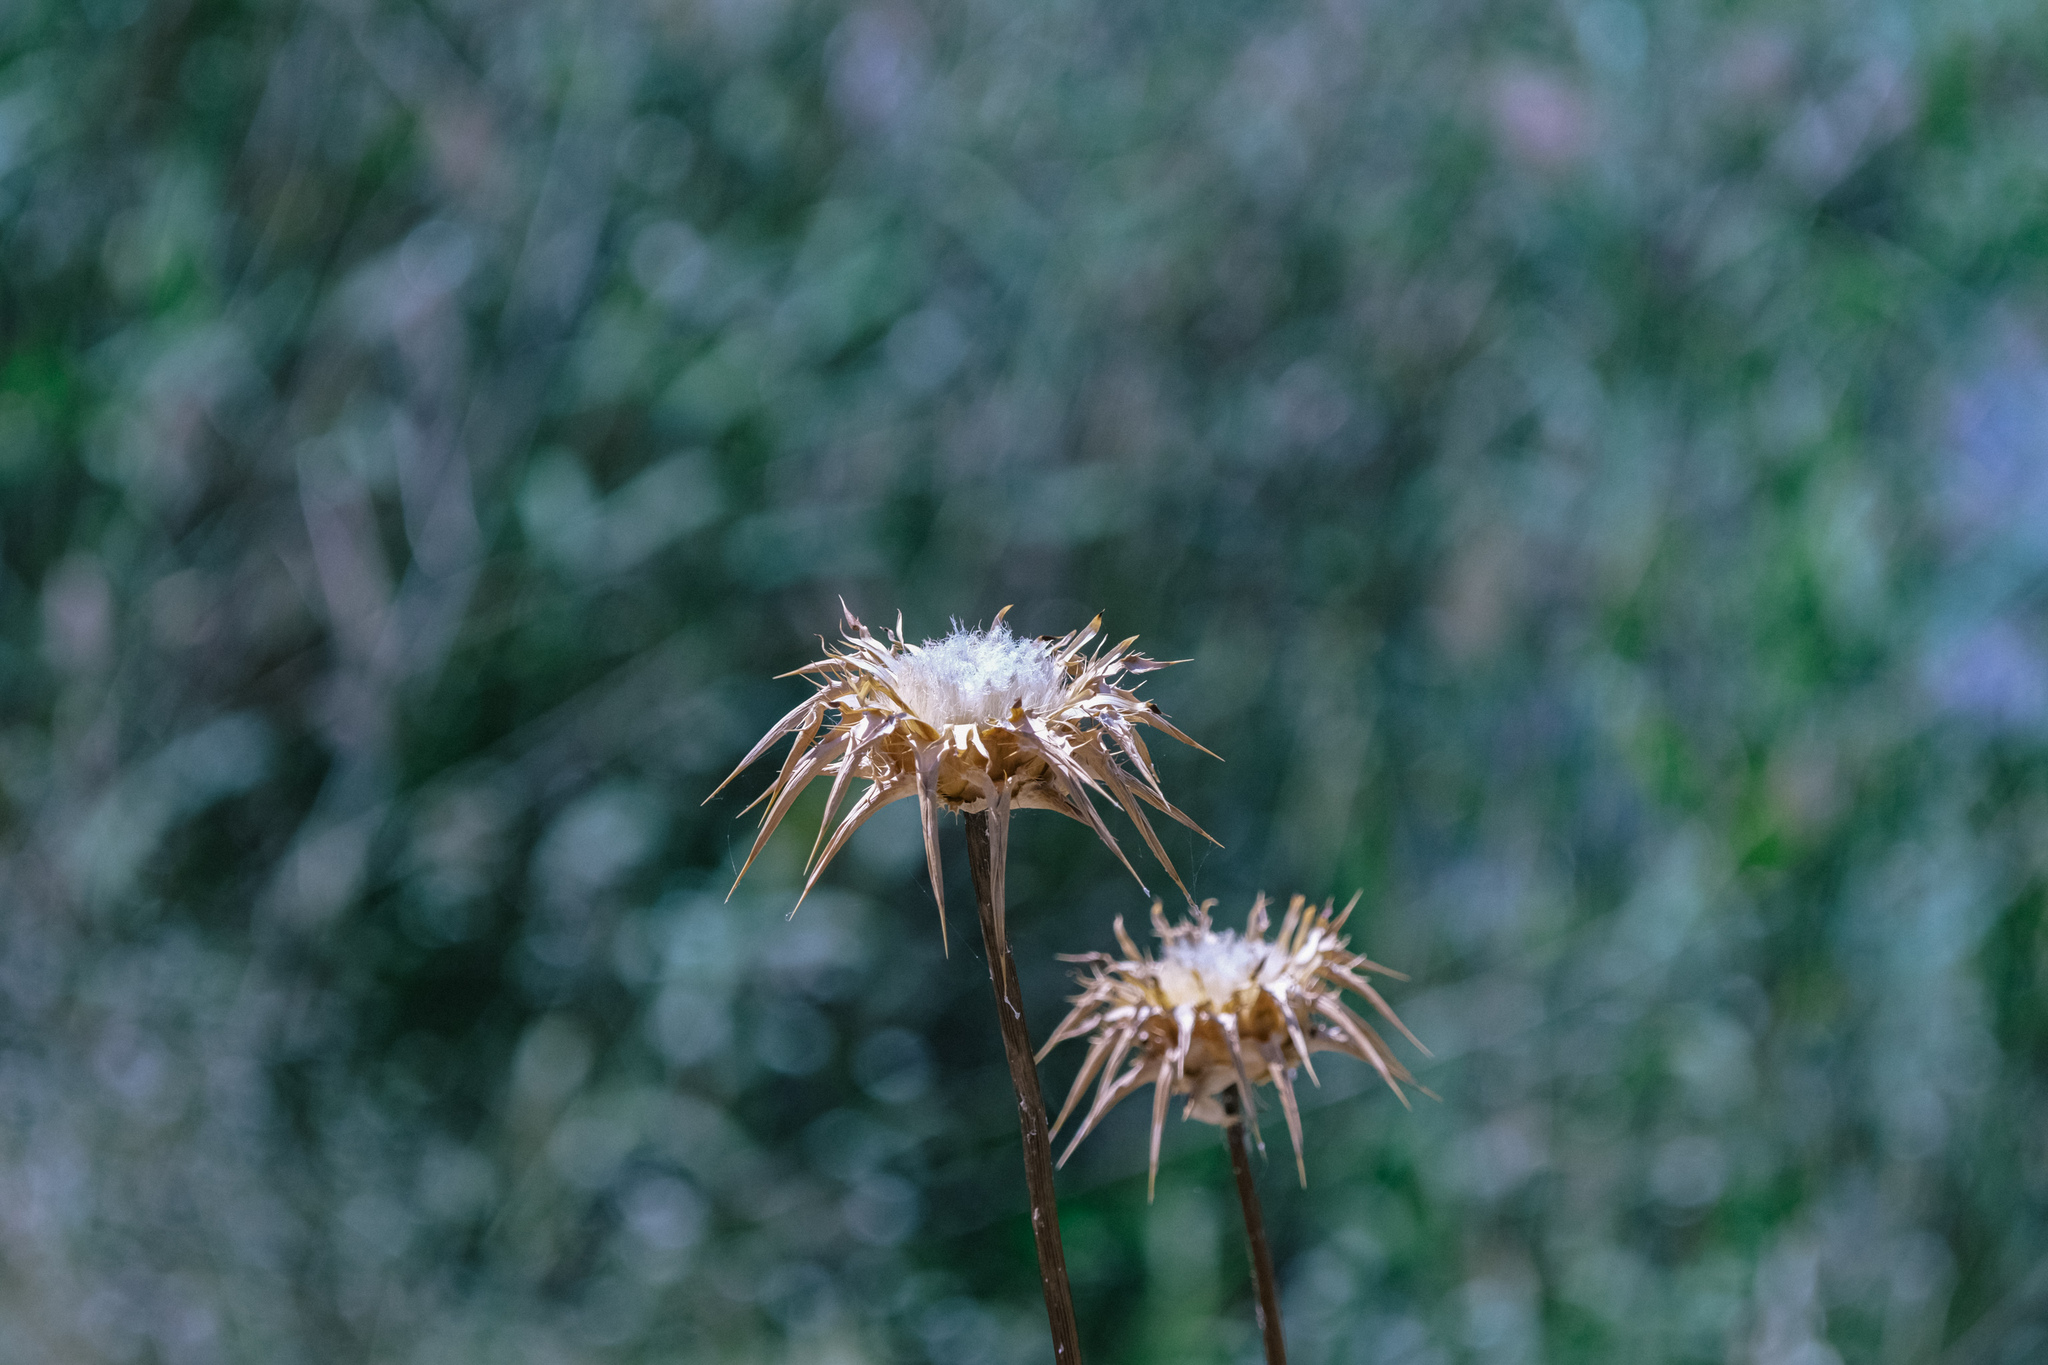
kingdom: Plantae
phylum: Tracheophyta
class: Magnoliopsida
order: Asterales
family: Asteraceae
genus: Silybum
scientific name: Silybum marianum
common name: Milk thistle
